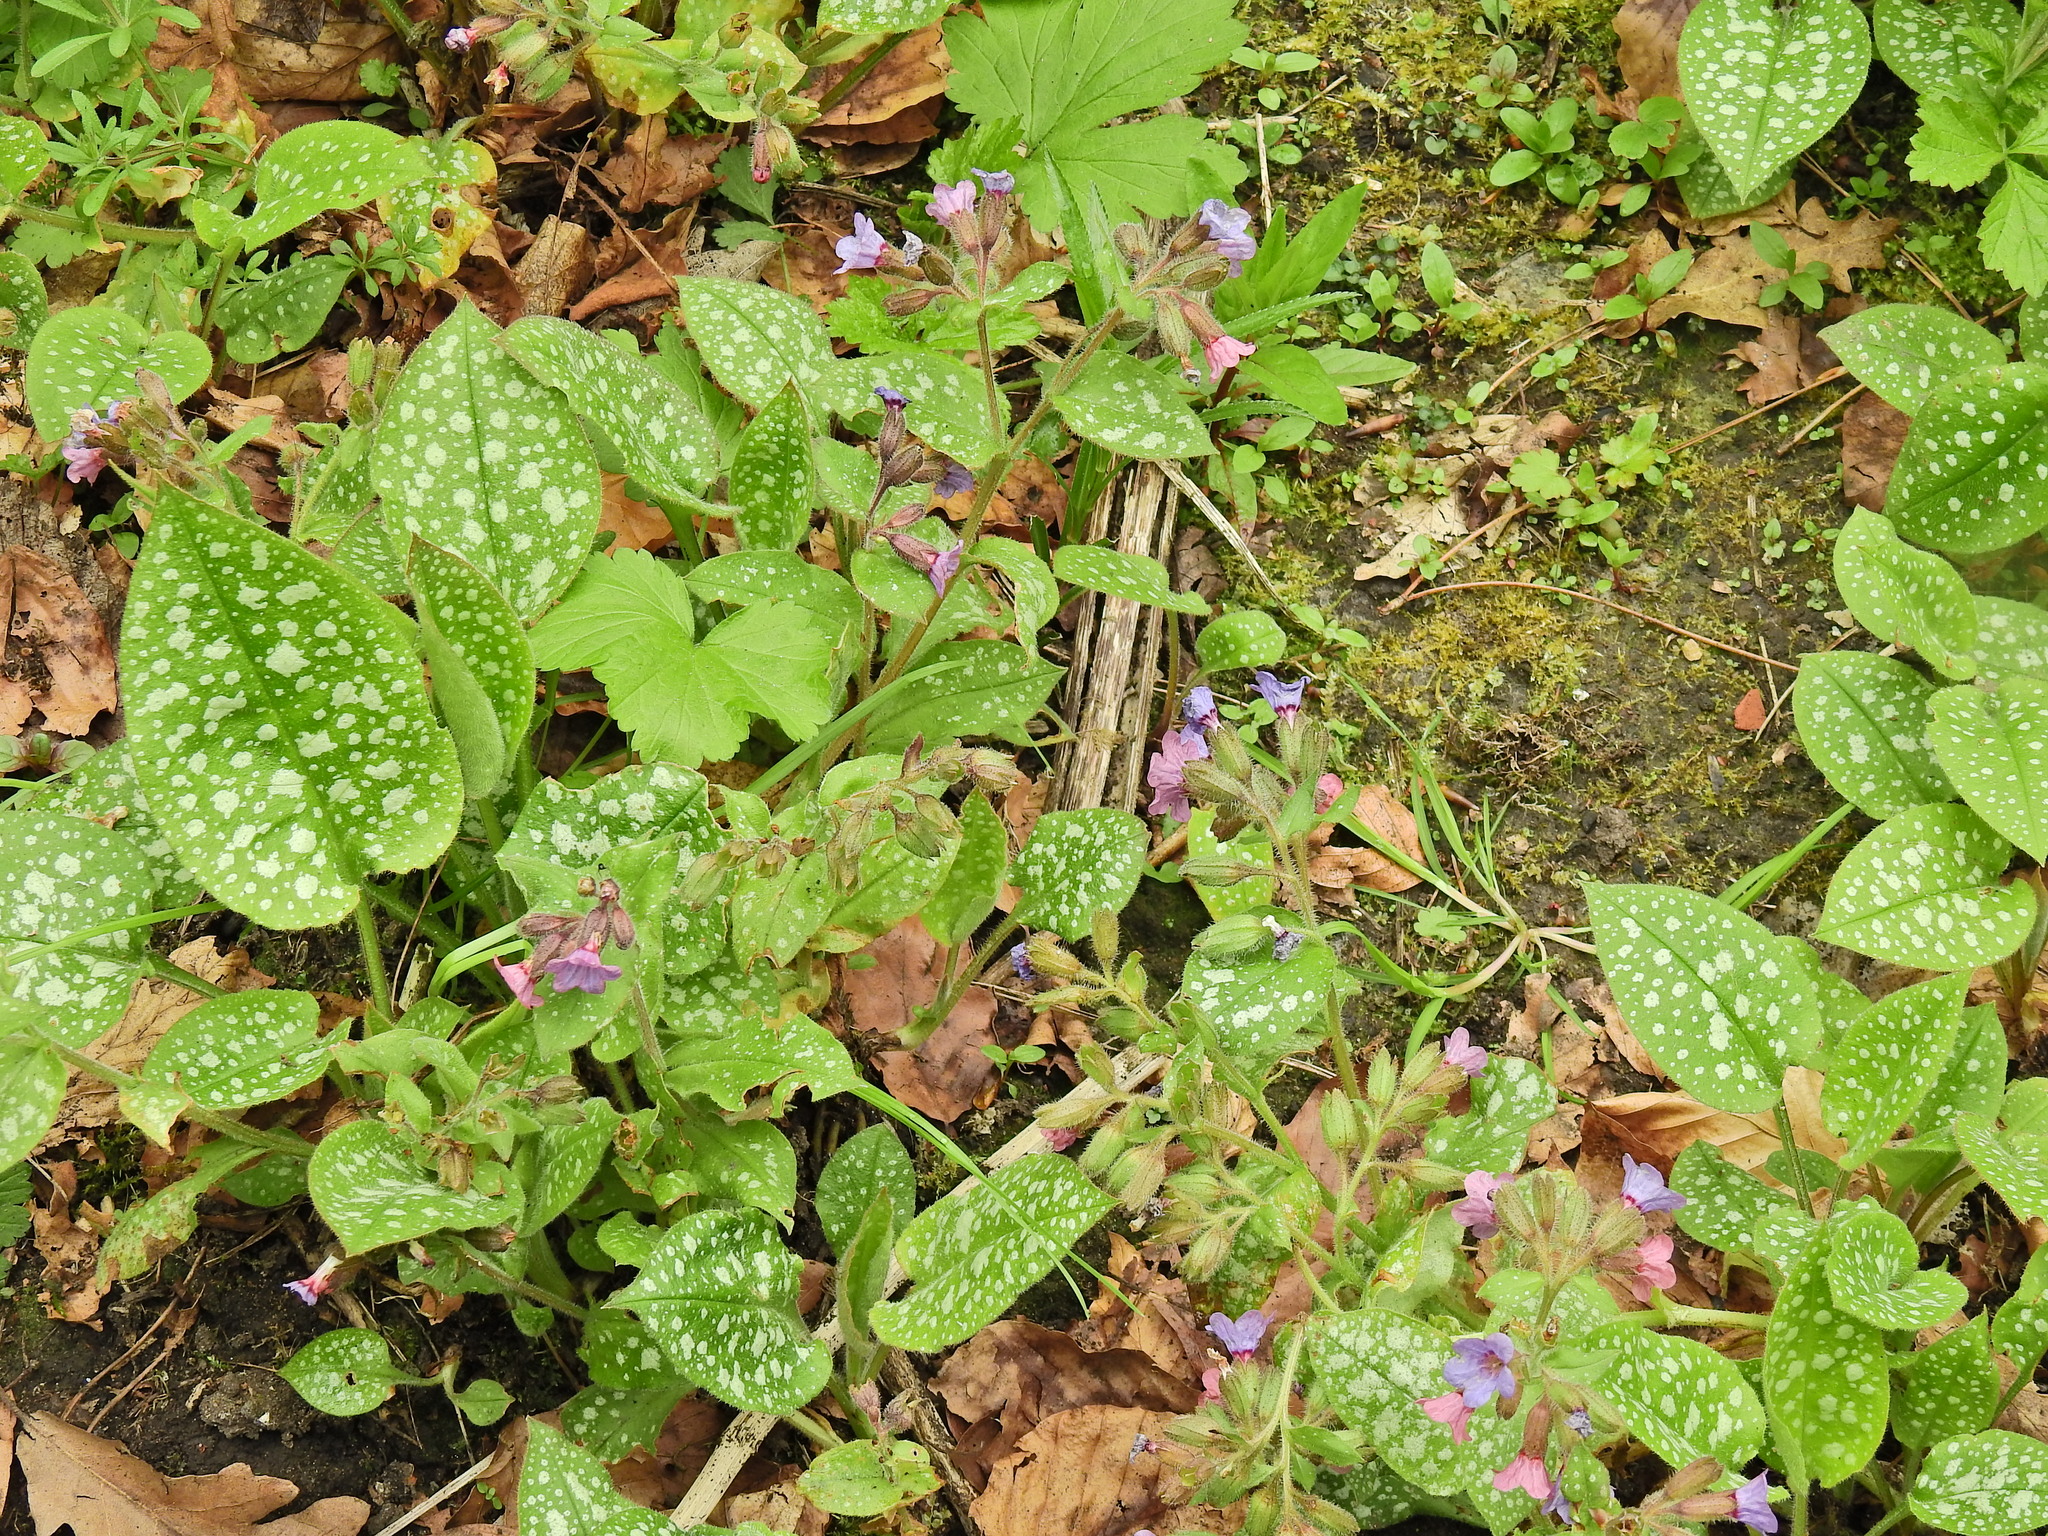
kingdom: Plantae
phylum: Tracheophyta
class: Magnoliopsida
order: Boraginales
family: Boraginaceae
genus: Pulmonaria
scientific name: Pulmonaria officinalis
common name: Lungwort
